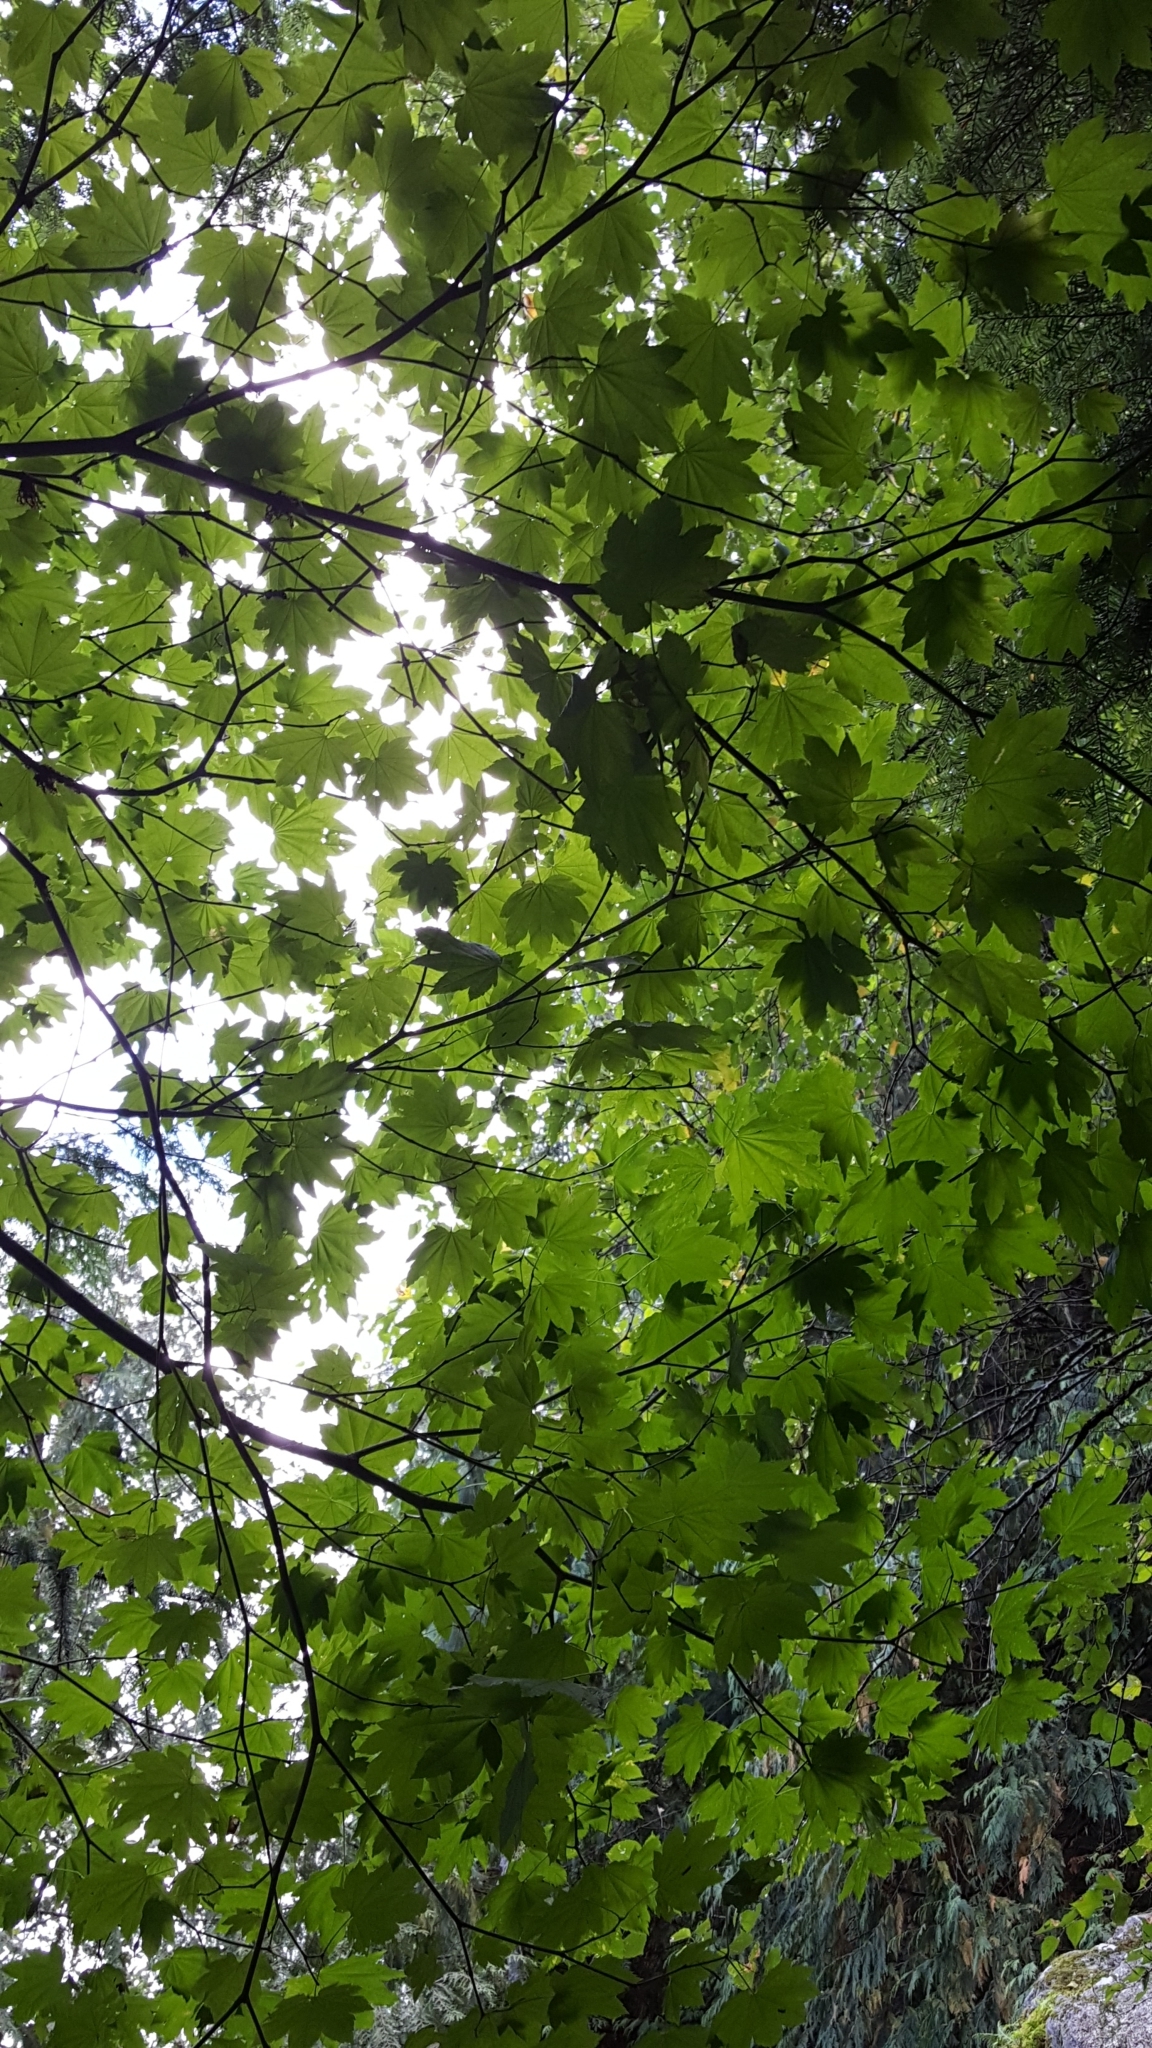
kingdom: Plantae
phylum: Tracheophyta
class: Magnoliopsida
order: Sapindales
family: Sapindaceae
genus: Acer
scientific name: Acer circinatum
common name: Vine maple
